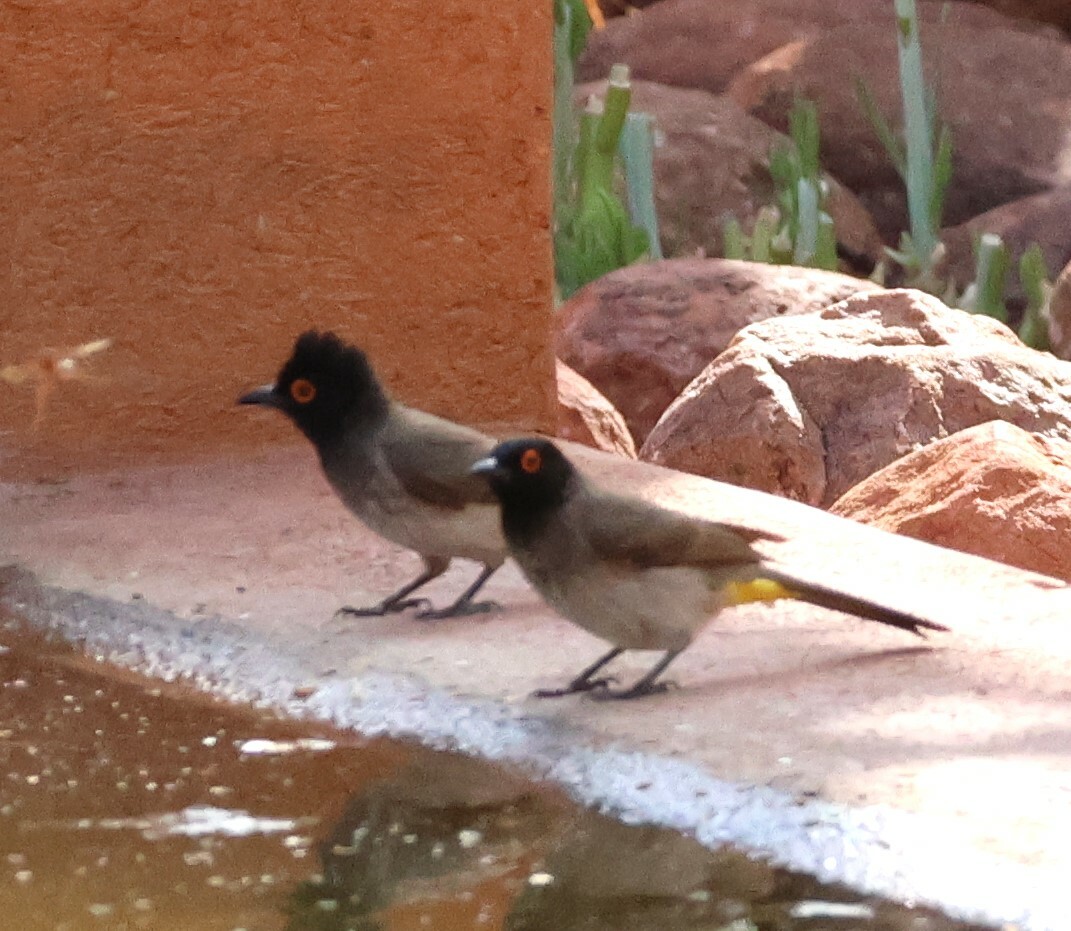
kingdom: Animalia
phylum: Chordata
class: Aves
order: Passeriformes
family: Pycnonotidae
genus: Pycnonotus
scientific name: Pycnonotus nigricans
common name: African red-eyed bulbul
